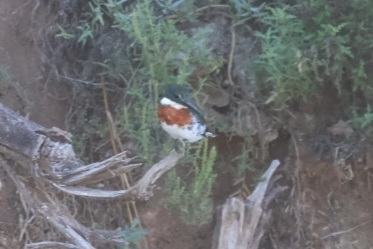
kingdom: Animalia
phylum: Chordata
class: Aves
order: Coraciiformes
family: Alcedinidae
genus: Chloroceryle
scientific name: Chloroceryle americana
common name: Green kingfisher
